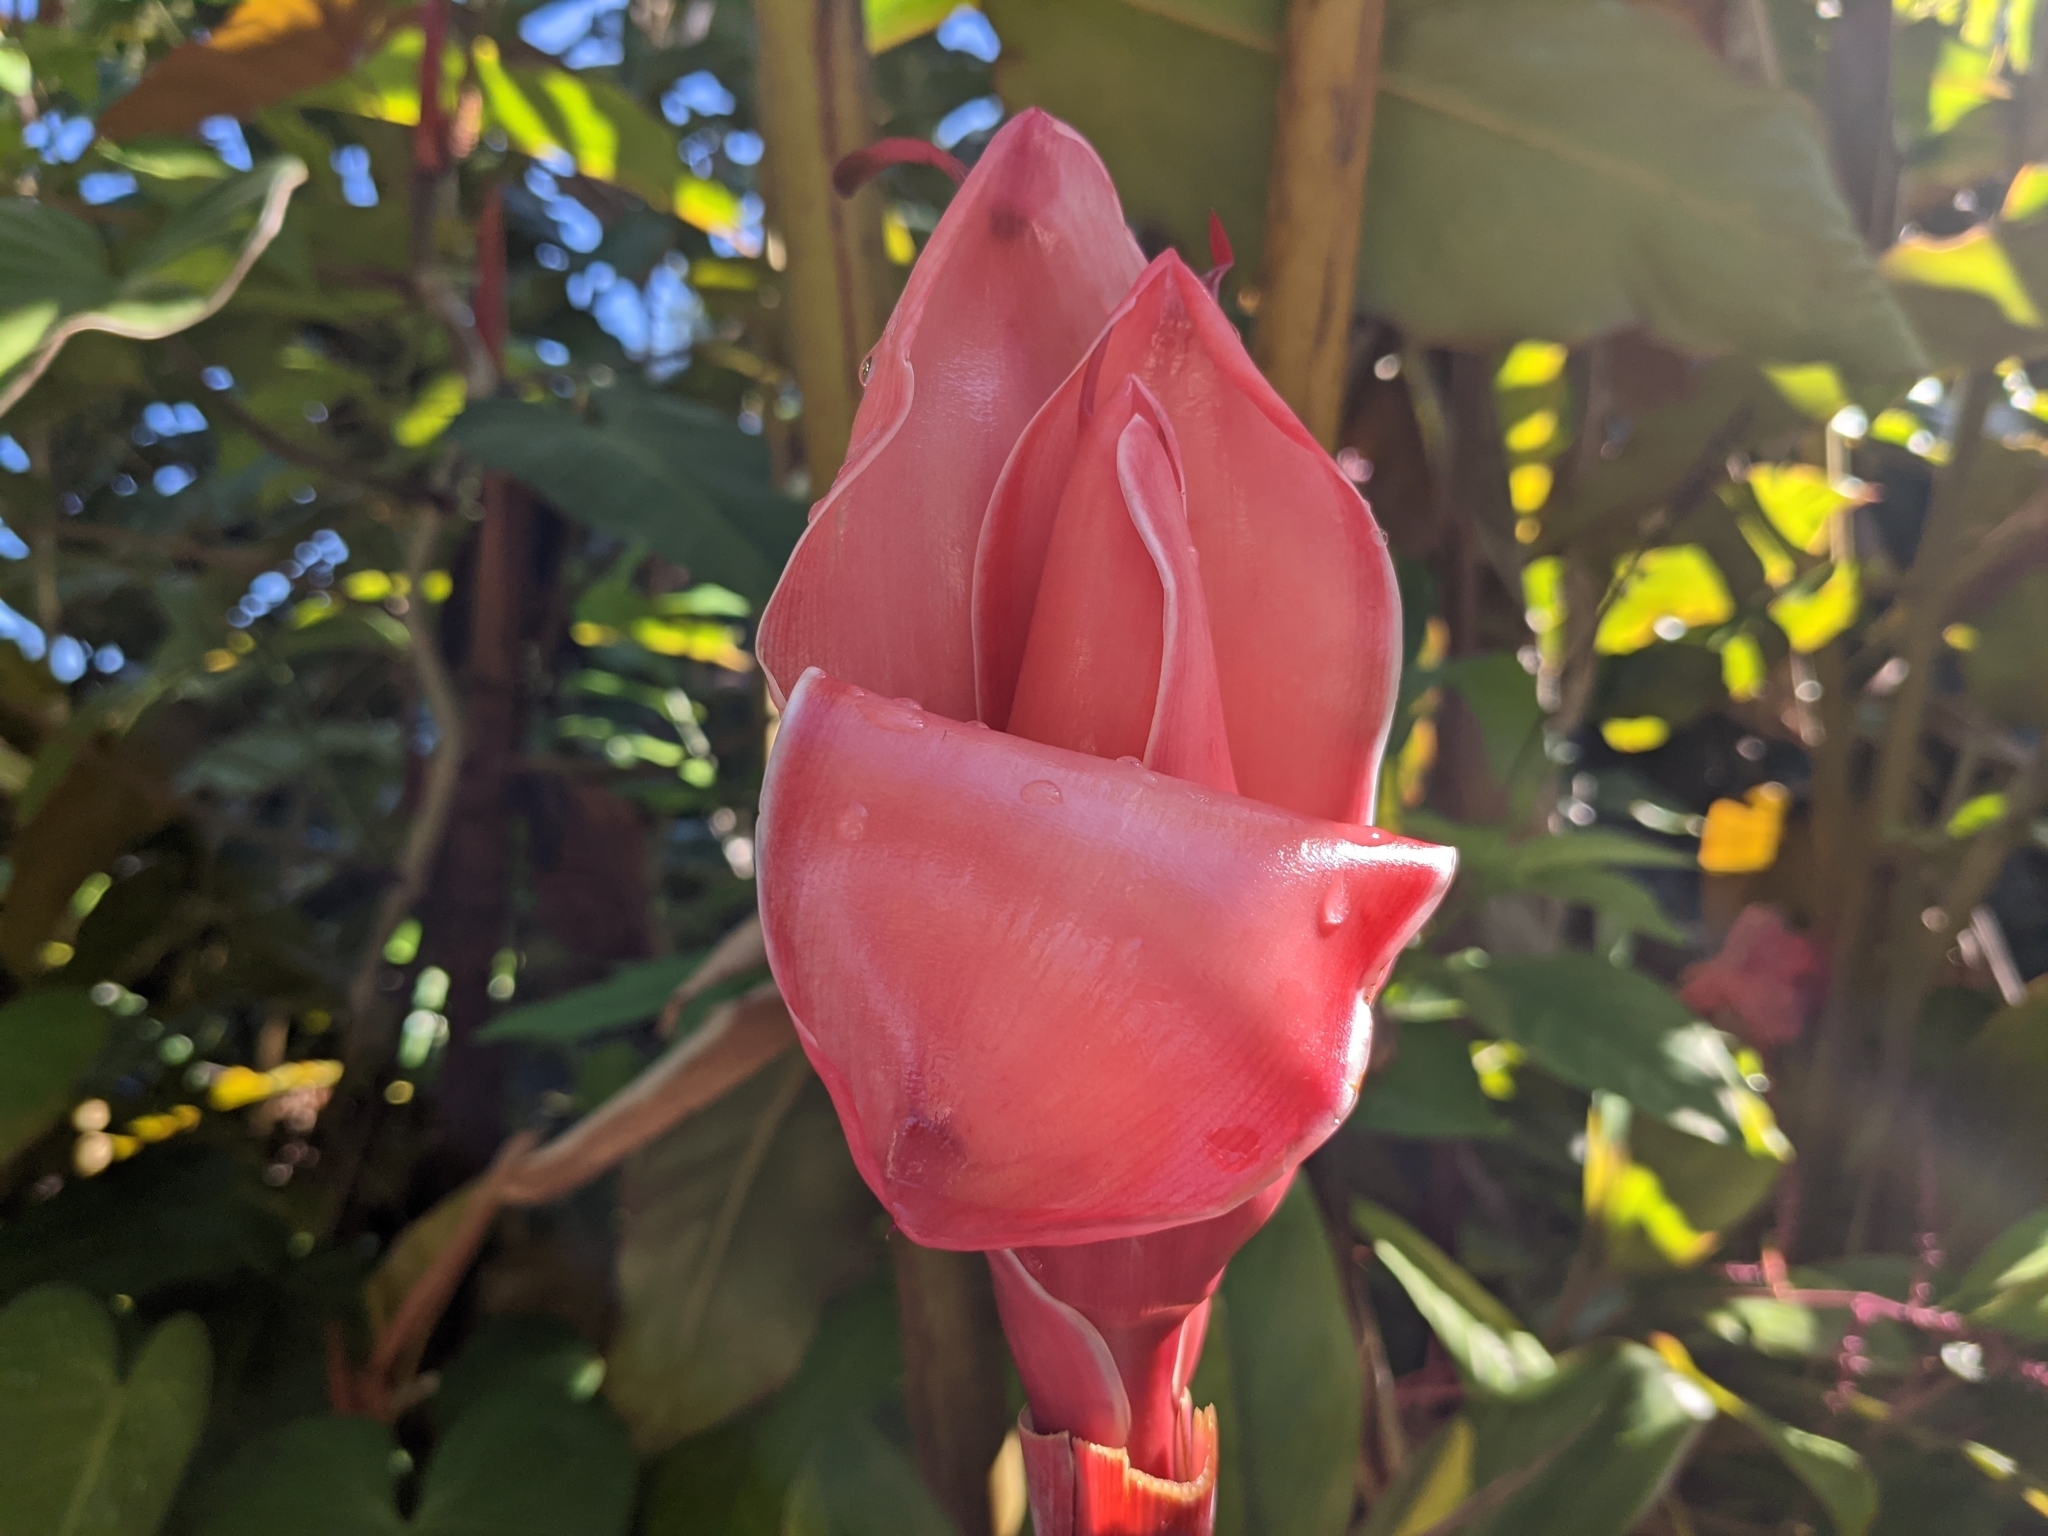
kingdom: Plantae
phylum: Tracheophyta
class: Liliopsida
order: Zingiberales
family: Zingiberaceae
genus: Etlingera
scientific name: Etlingera elatior
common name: Philippine waxflower
